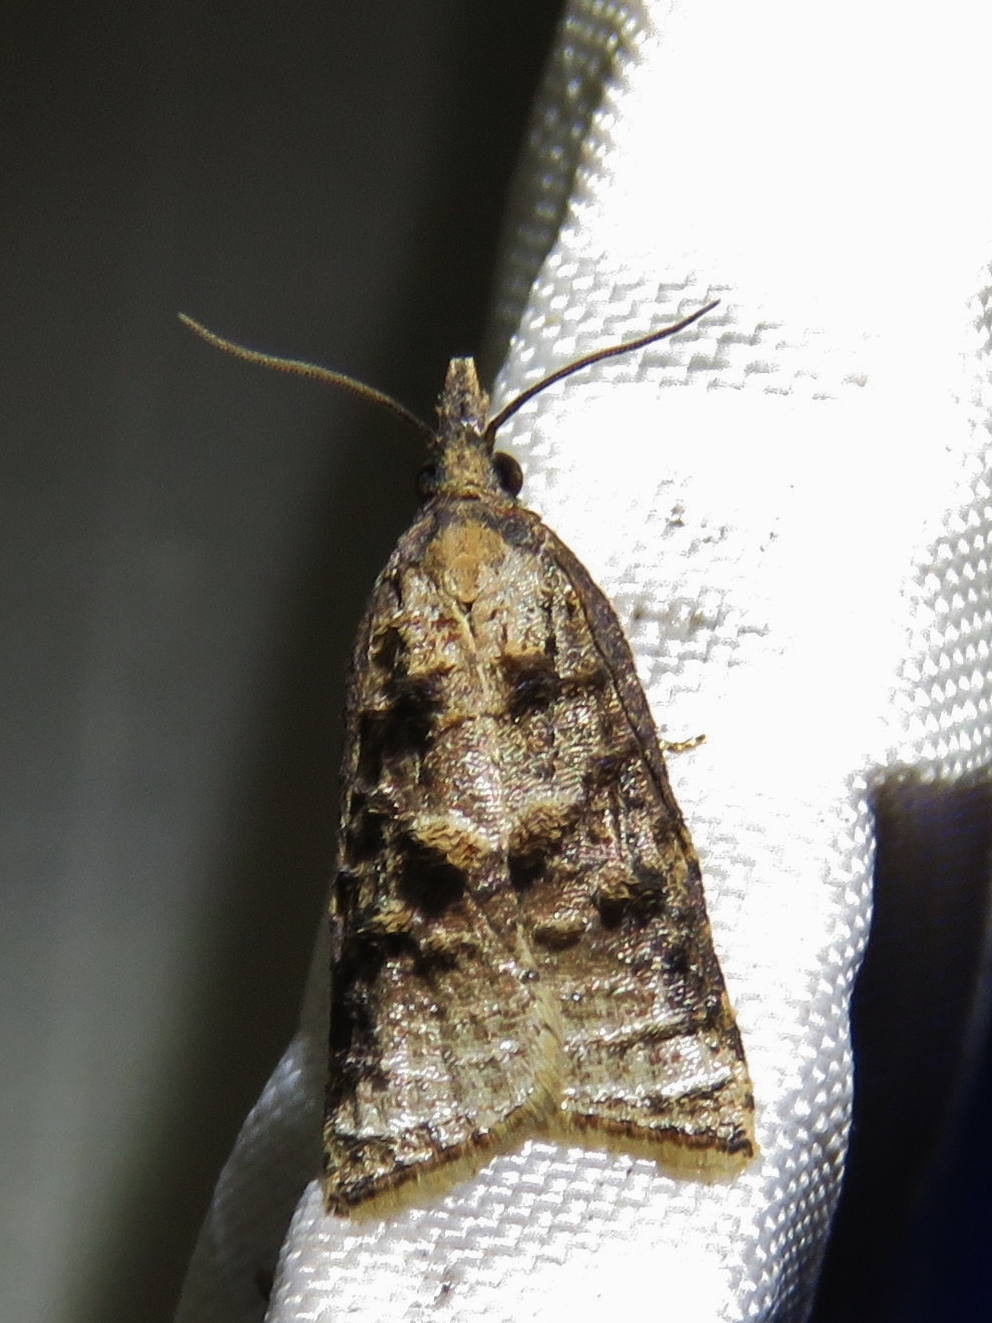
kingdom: Animalia
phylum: Arthropoda
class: Insecta
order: Lepidoptera
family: Tortricidae
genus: Platynota
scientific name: Platynota idaeusalis
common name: Tufted apple bud moth
